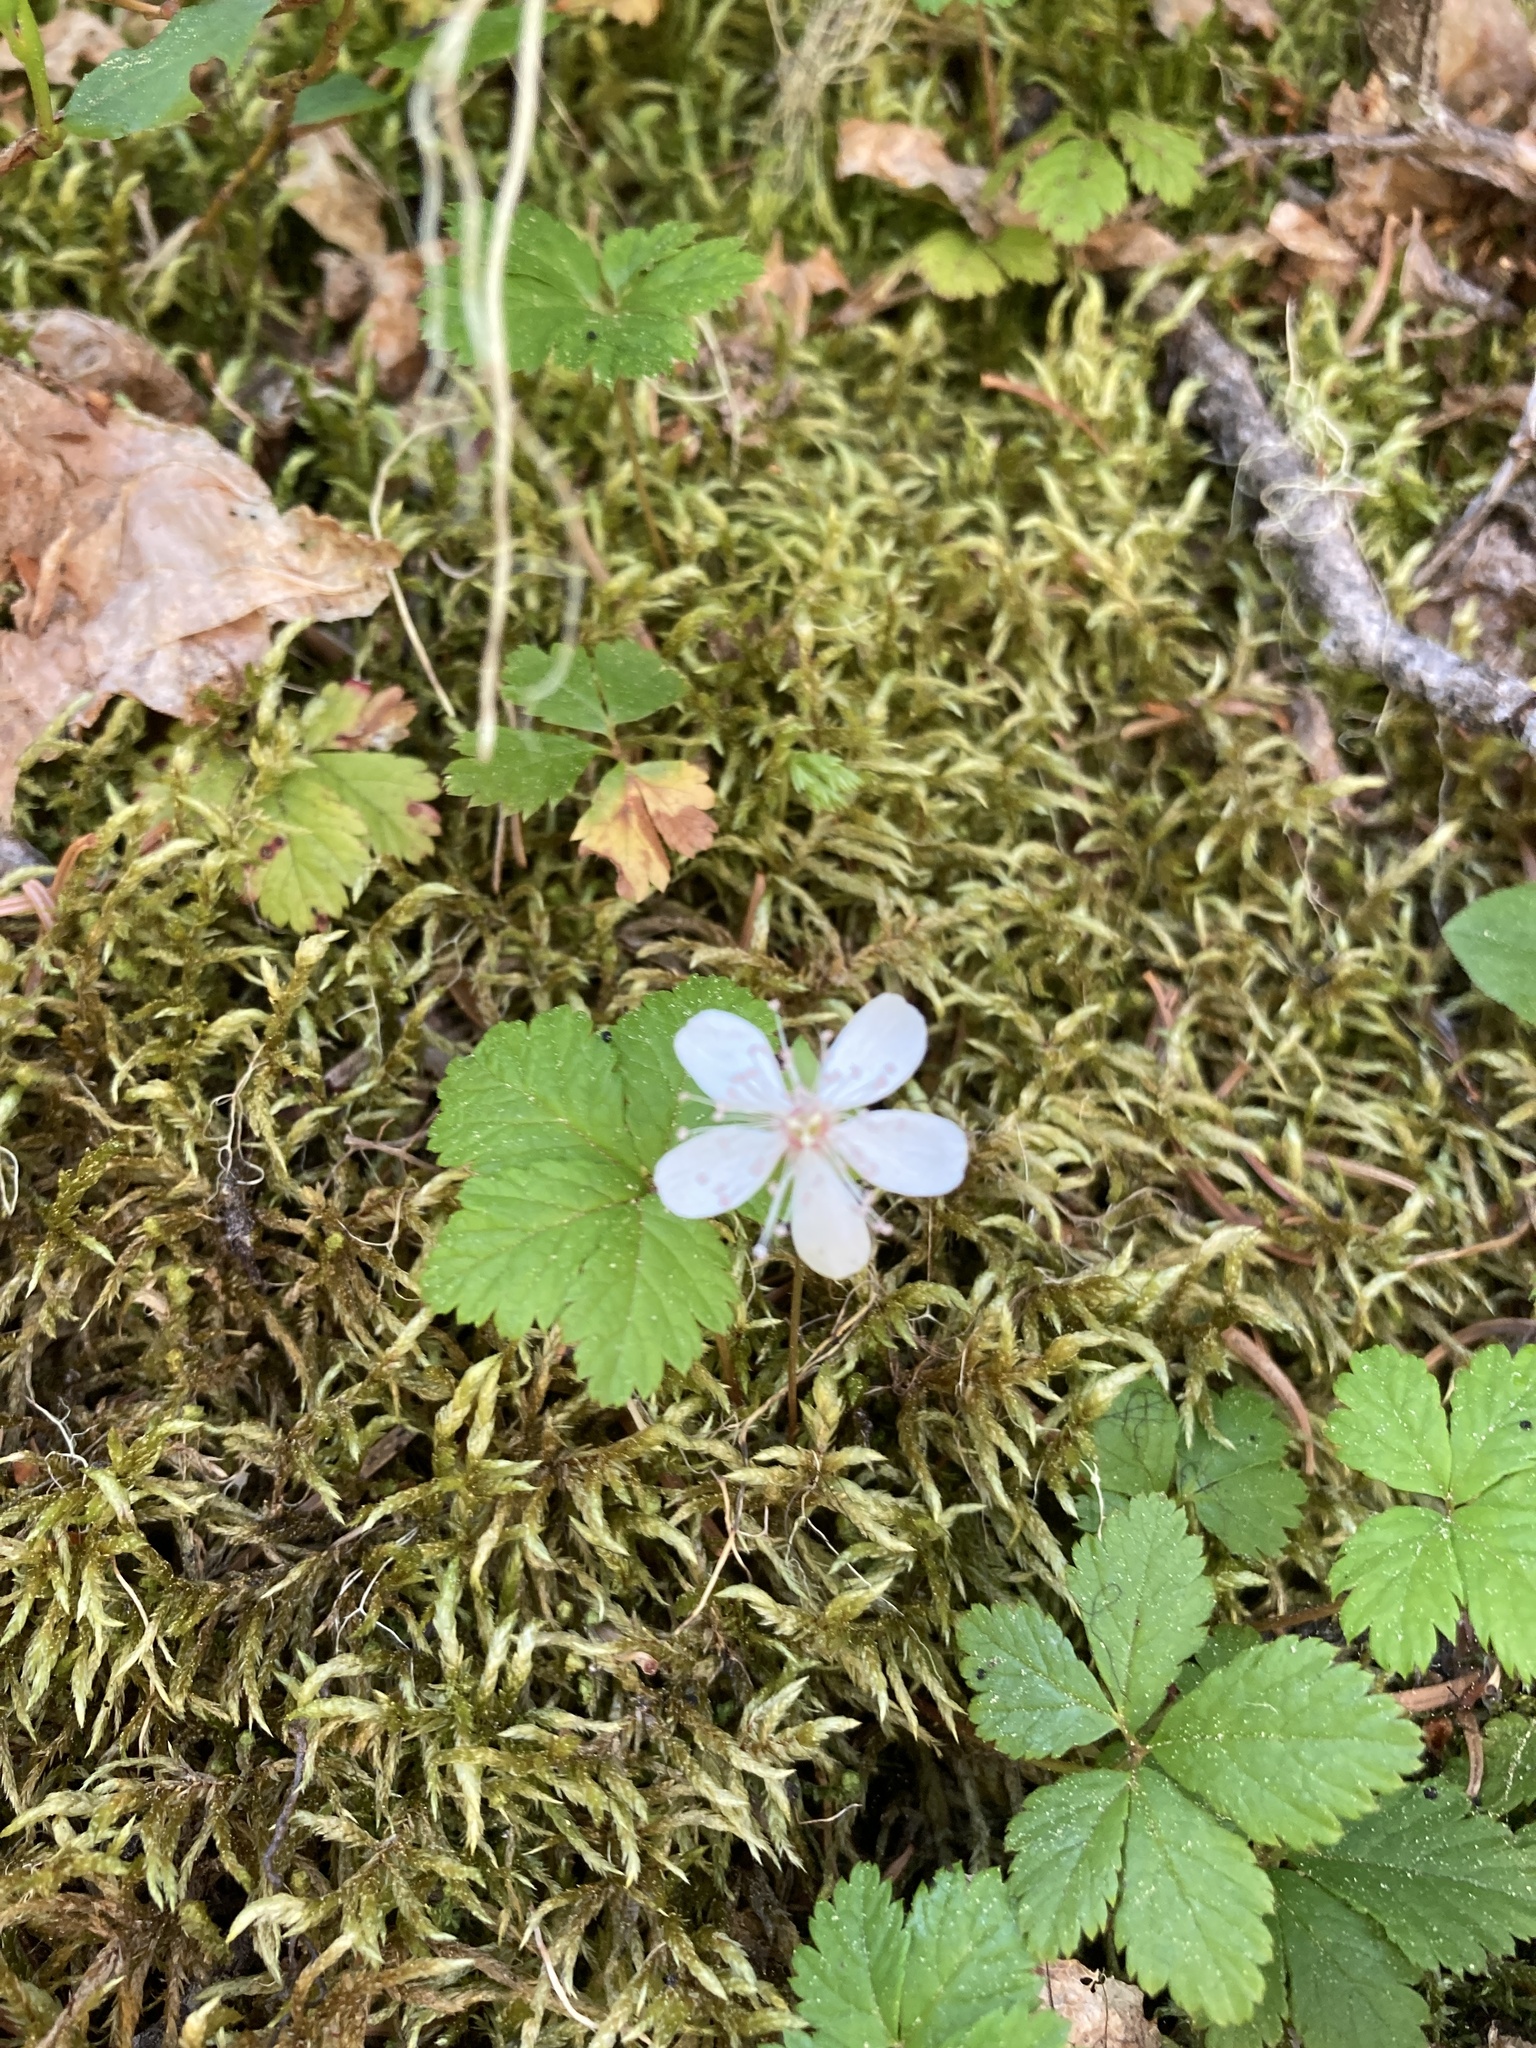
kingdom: Plantae
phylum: Tracheophyta
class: Magnoliopsida
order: Rosales
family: Rosaceae
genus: Rubus
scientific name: Rubus pedatus
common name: Creeping raspberry
